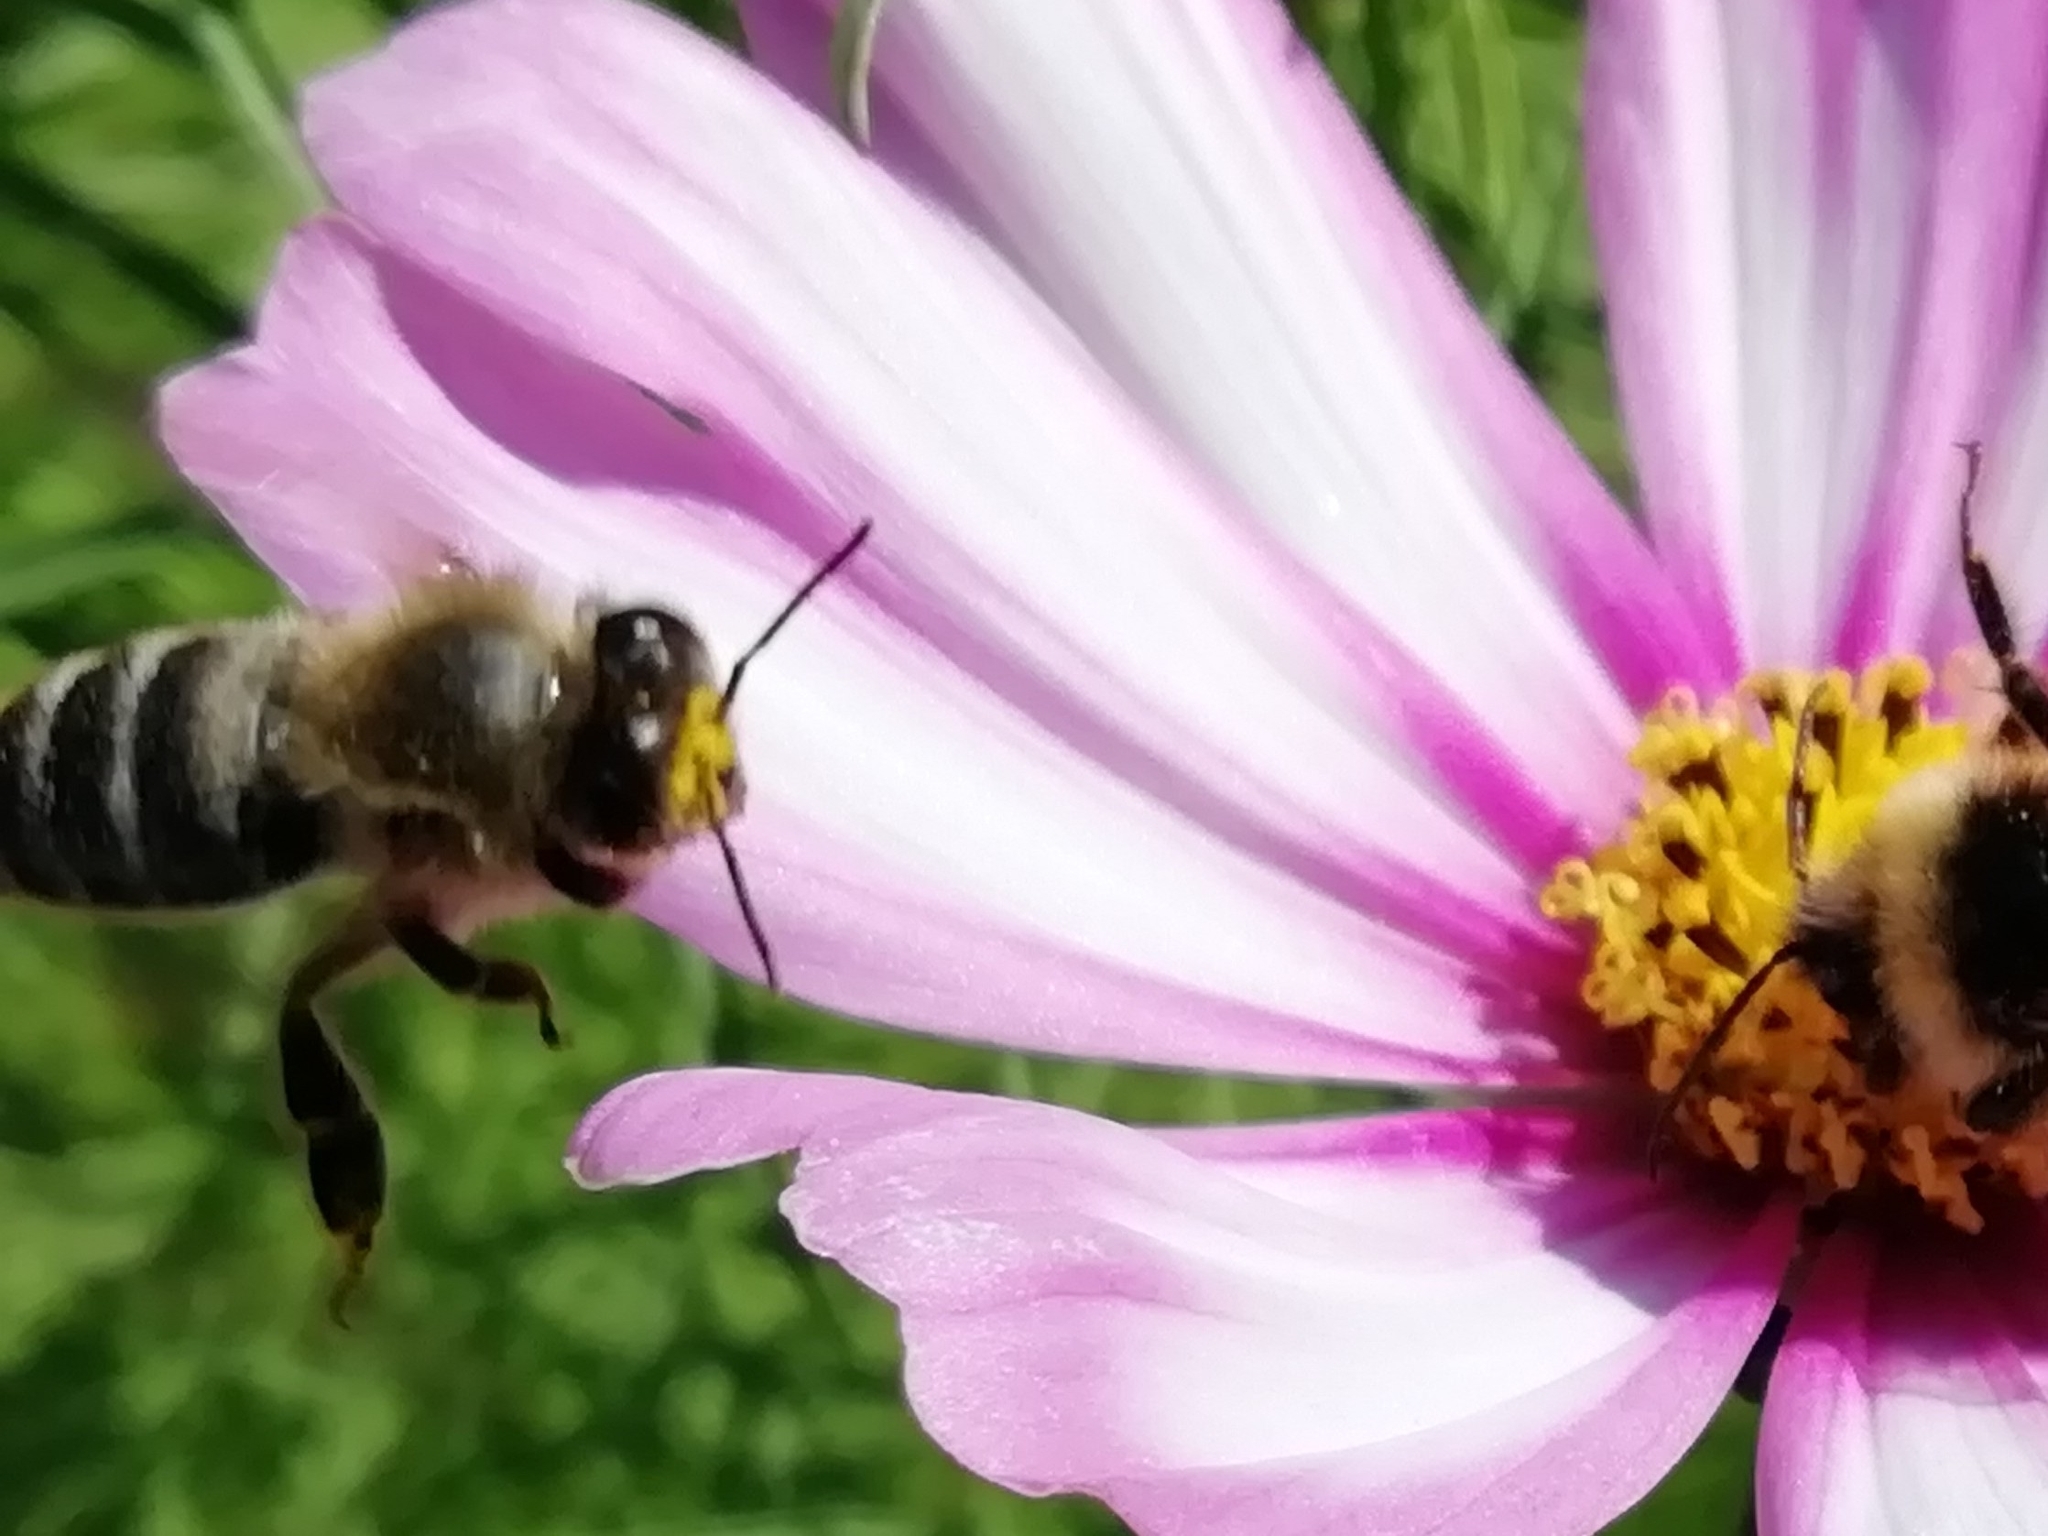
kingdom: Animalia
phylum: Arthropoda
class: Insecta
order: Hymenoptera
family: Apidae
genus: Apis
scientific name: Apis mellifera
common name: Honey bee
